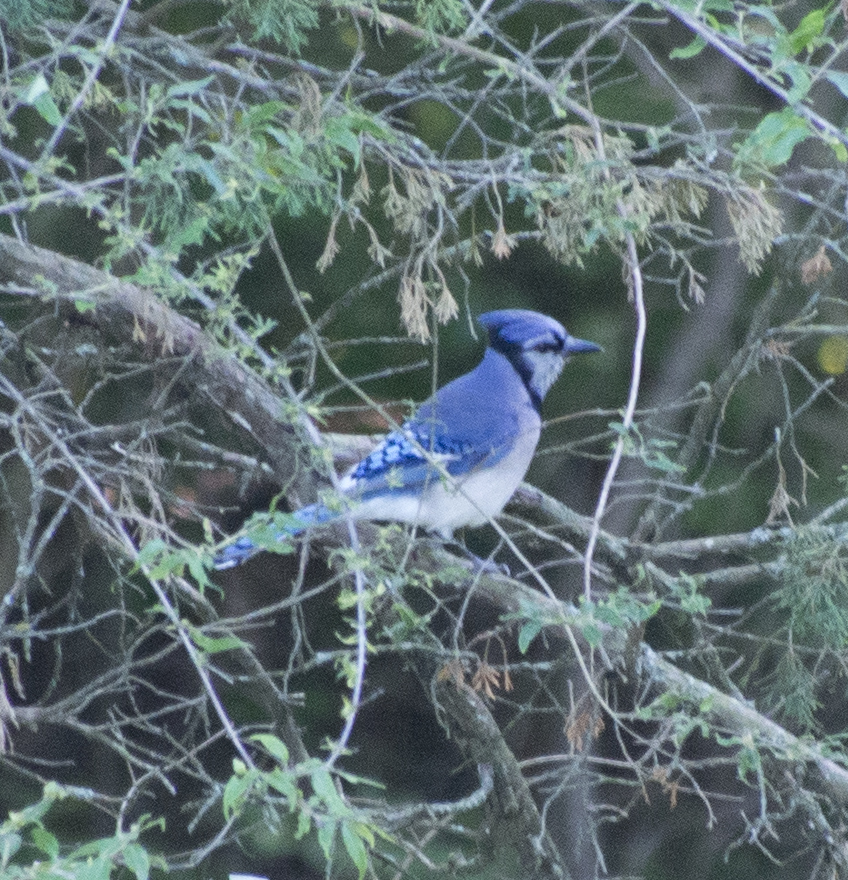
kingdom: Animalia
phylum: Chordata
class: Aves
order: Passeriformes
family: Corvidae
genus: Cyanocitta
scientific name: Cyanocitta cristata
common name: Blue jay
